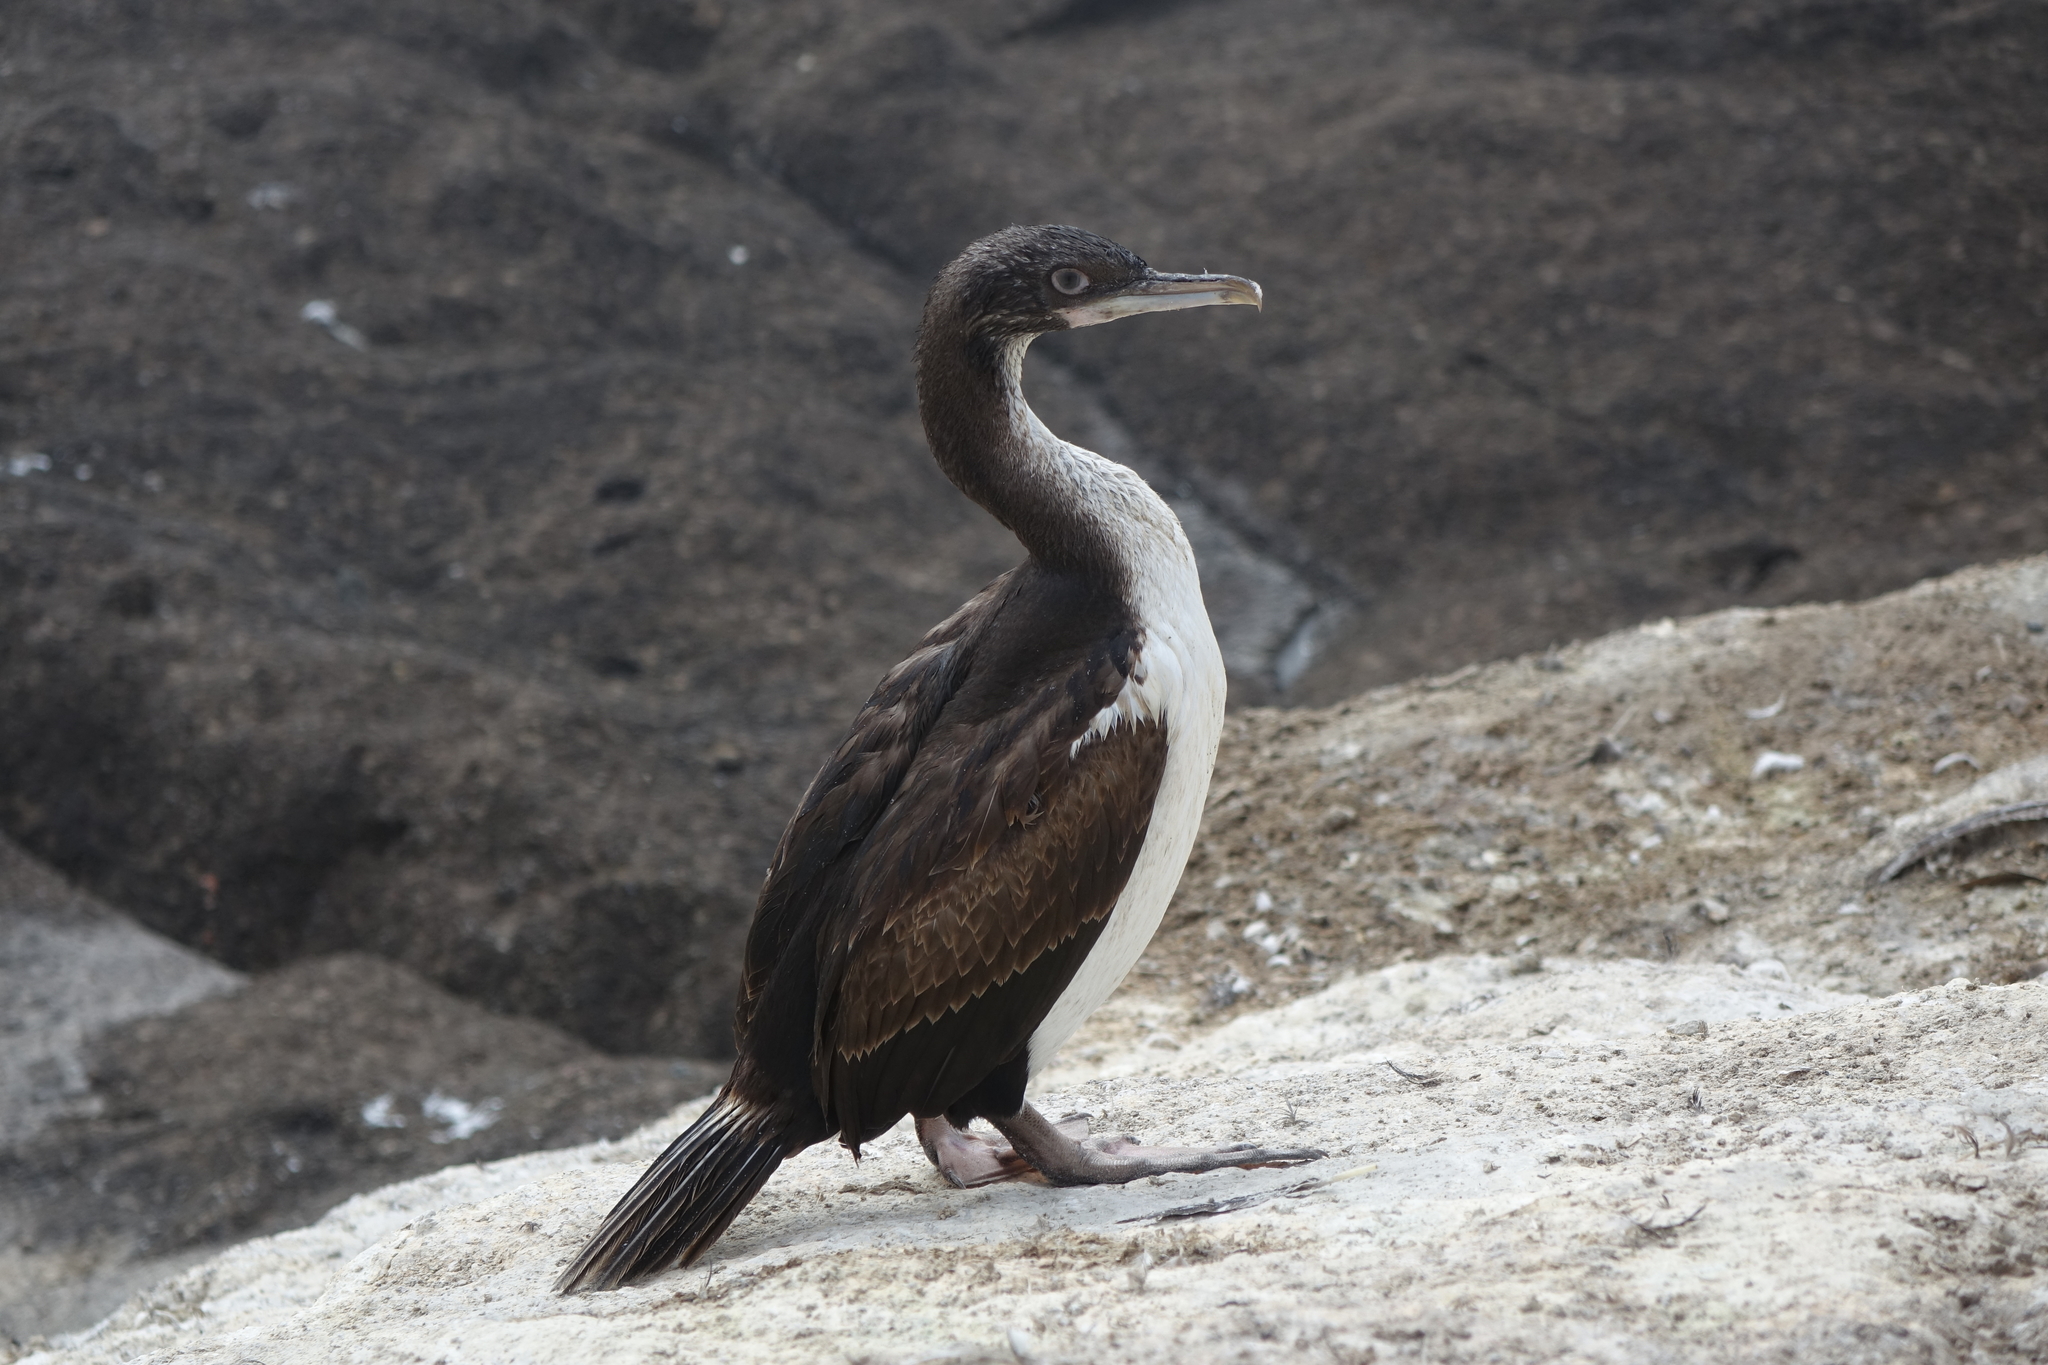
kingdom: Animalia
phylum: Chordata
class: Aves
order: Suliformes
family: Phalacrocoracidae
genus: Leucocarbo
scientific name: Leucocarbo chalconotus
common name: Stewart shag
